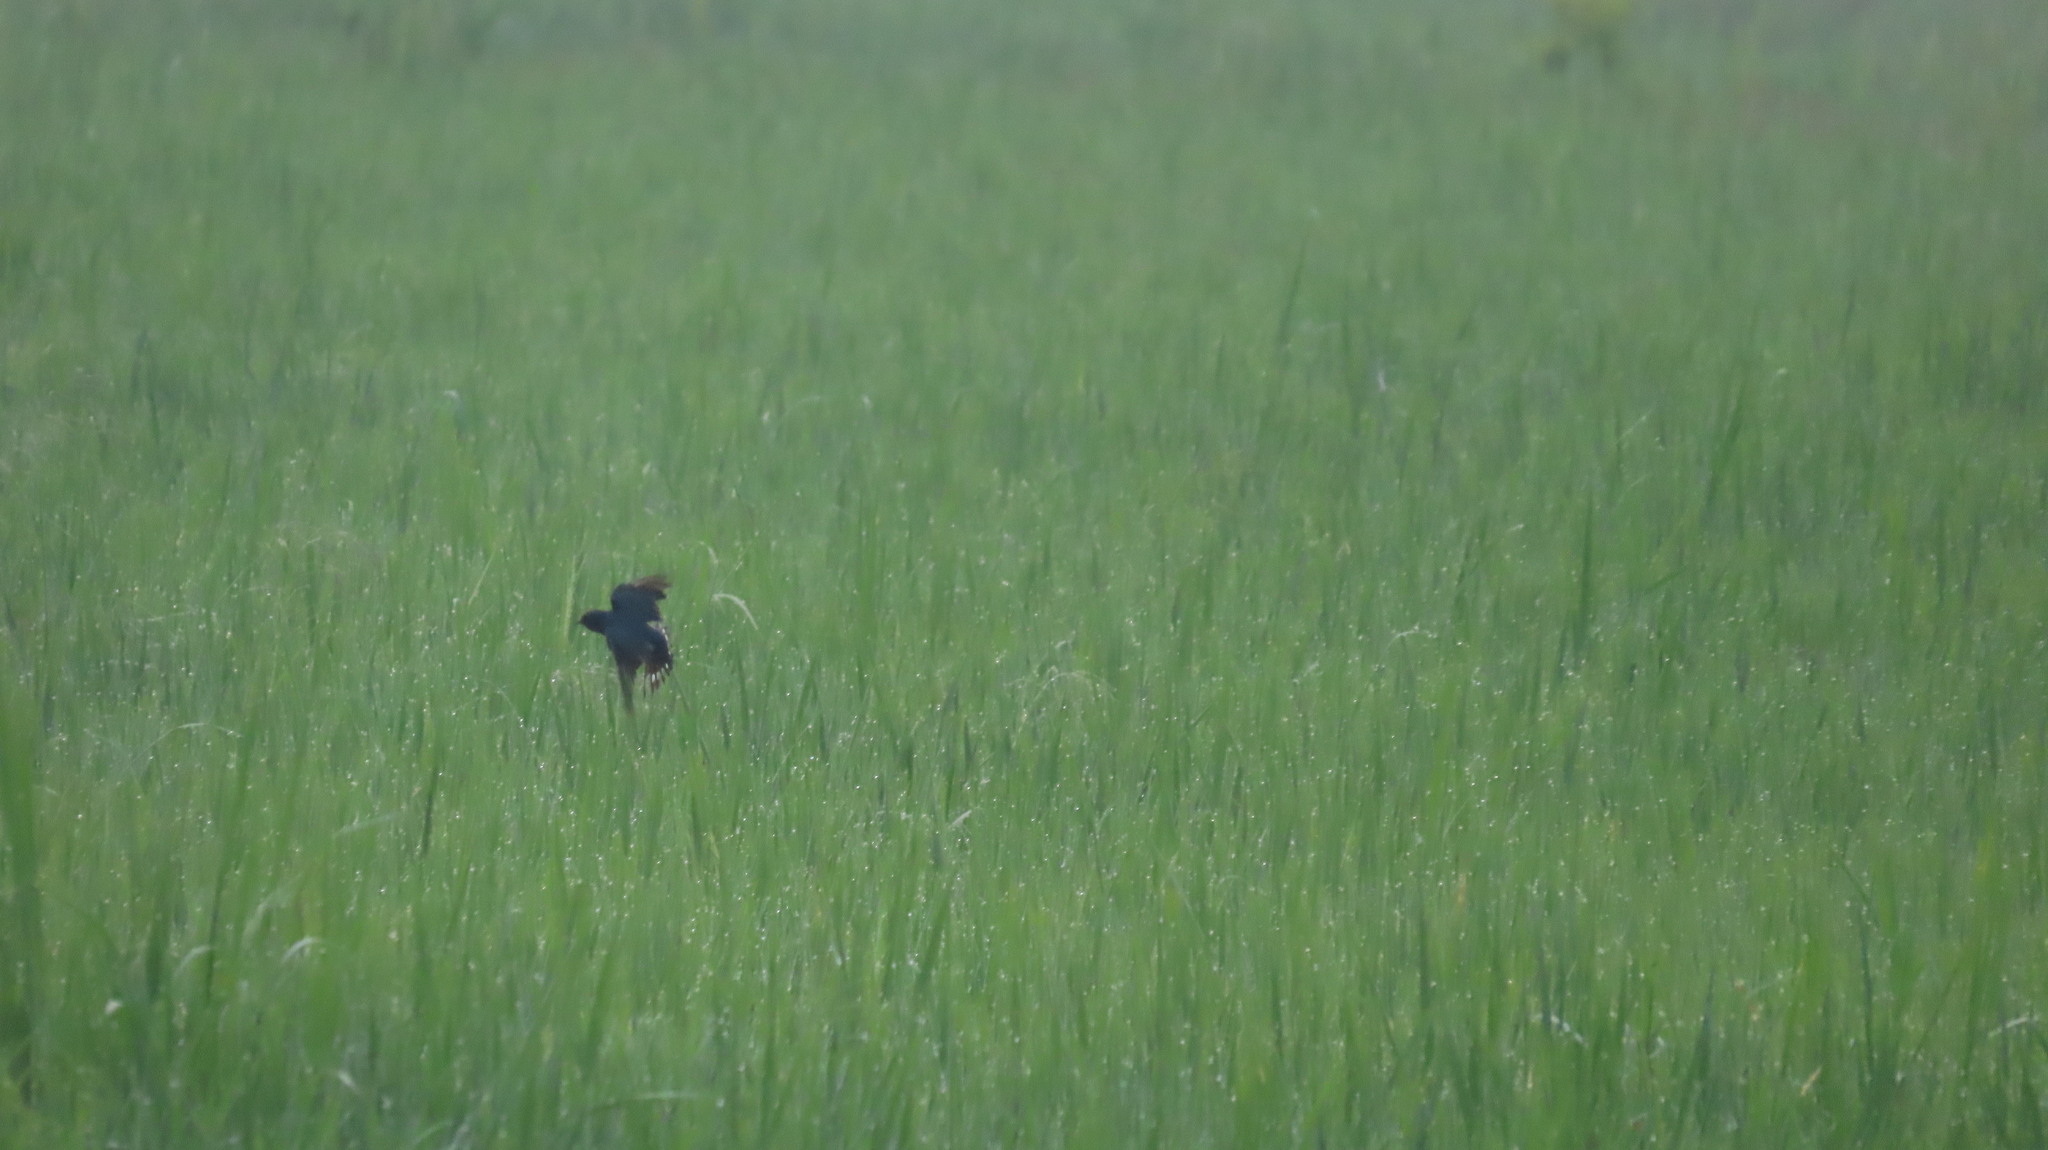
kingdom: Animalia
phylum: Chordata
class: Aves
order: Passeriformes
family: Hirundinidae
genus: Hirundo
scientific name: Hirundo rustica
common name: Barn swallow
